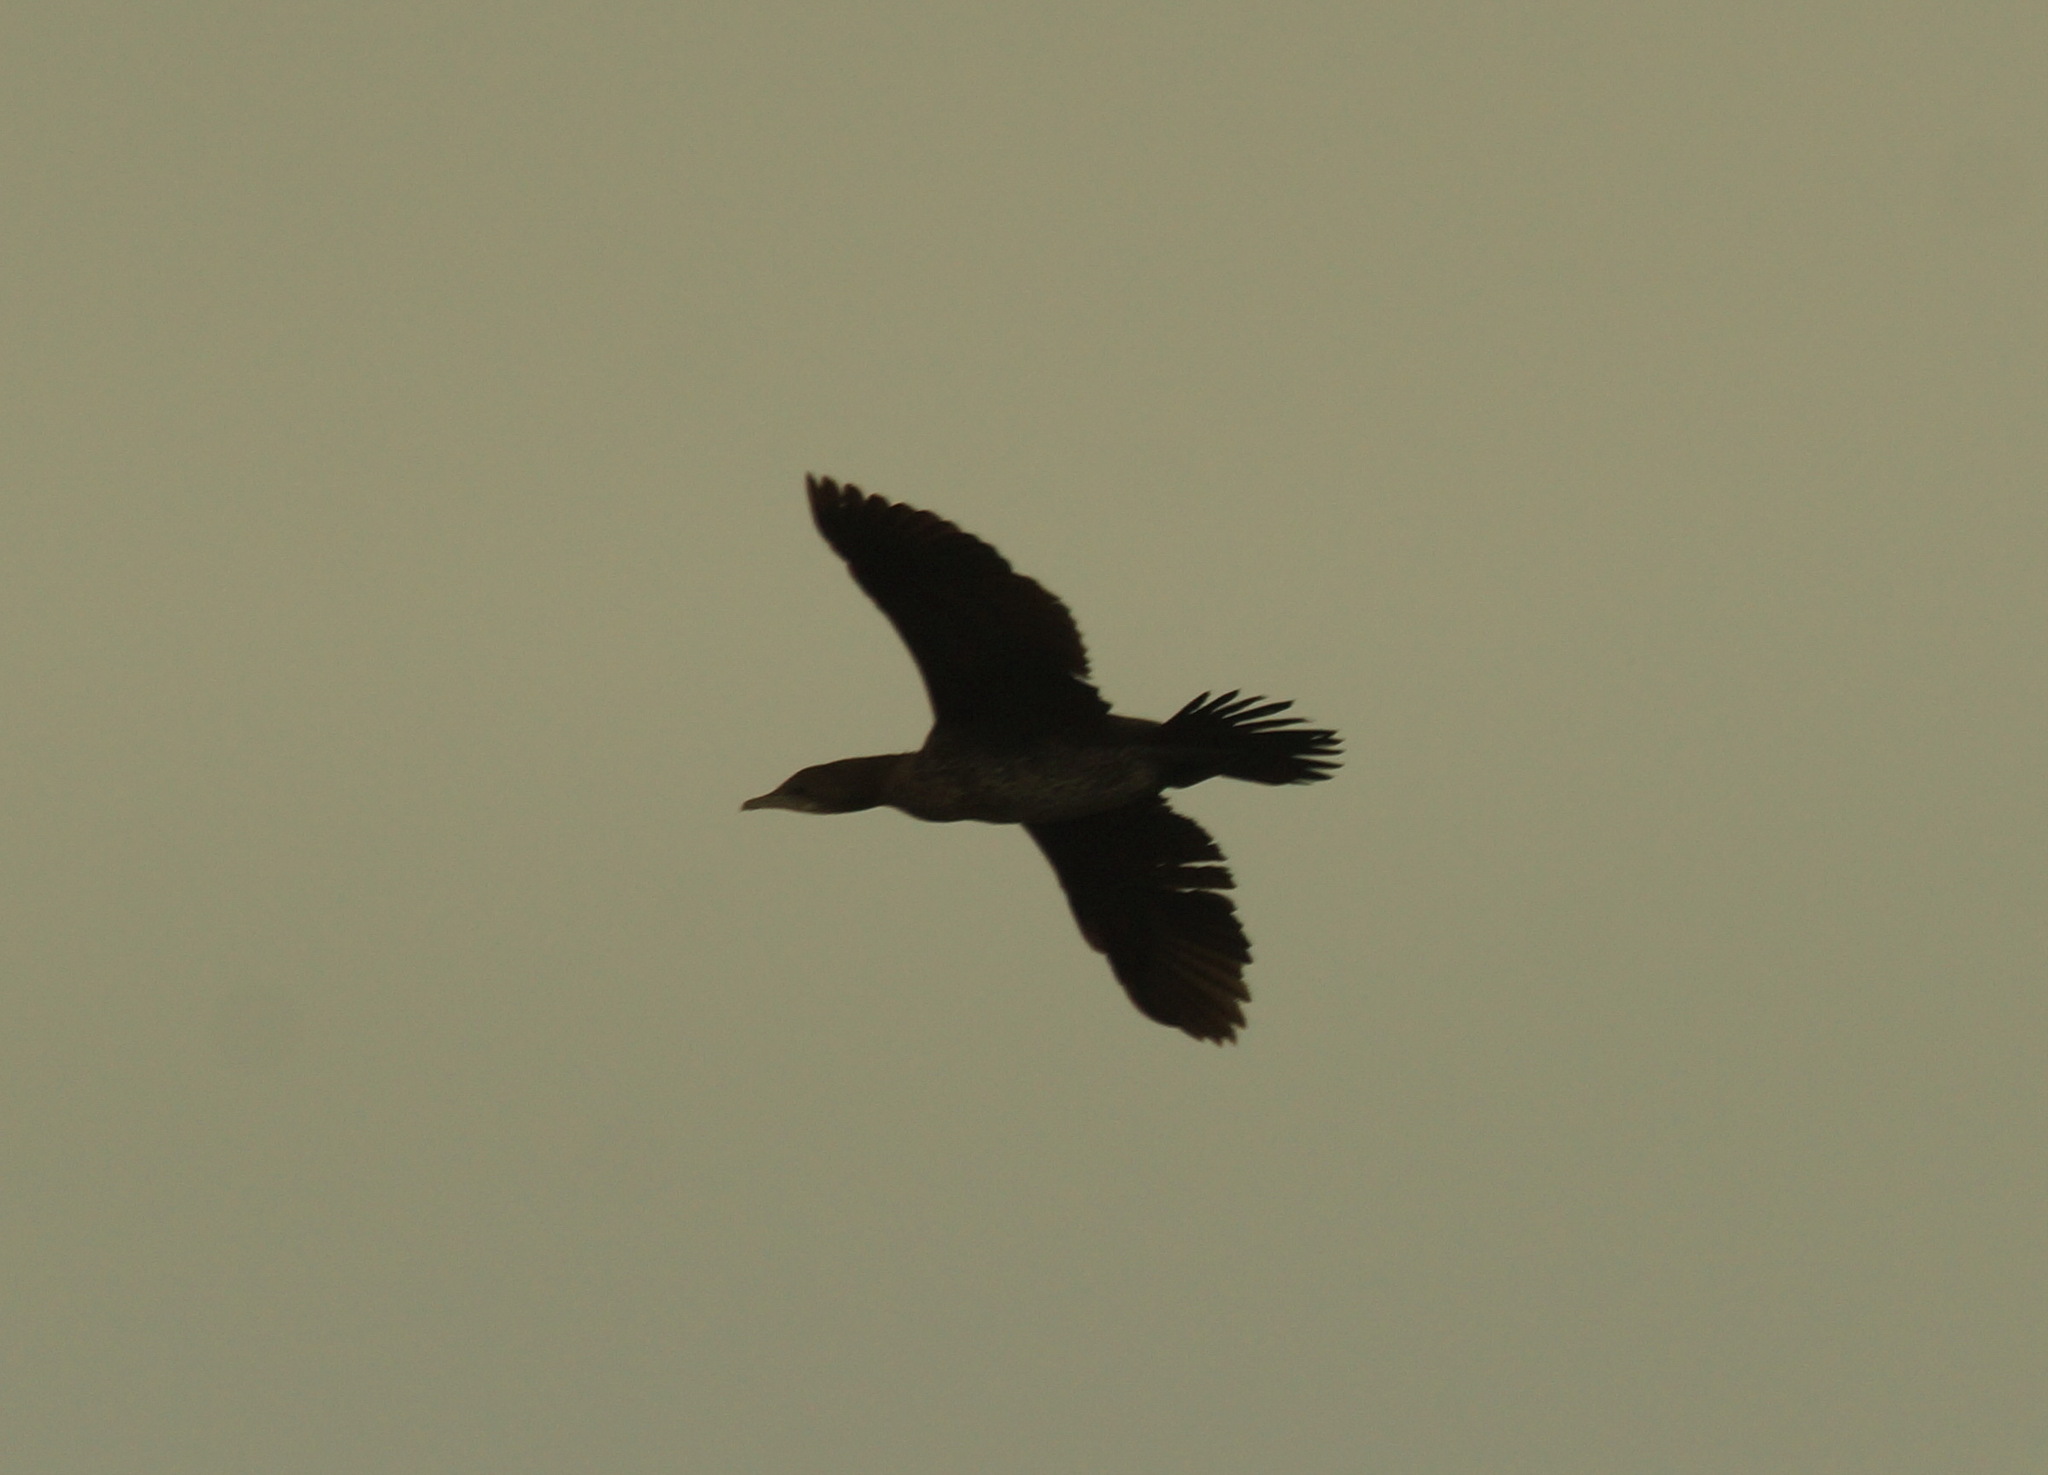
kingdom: Animalia
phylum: Chordata
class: Aves
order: Suliformes
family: Phalacrocoracidae
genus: Microcarbo
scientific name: Microcarbo pygmaeus
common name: Pygmy cormorant
